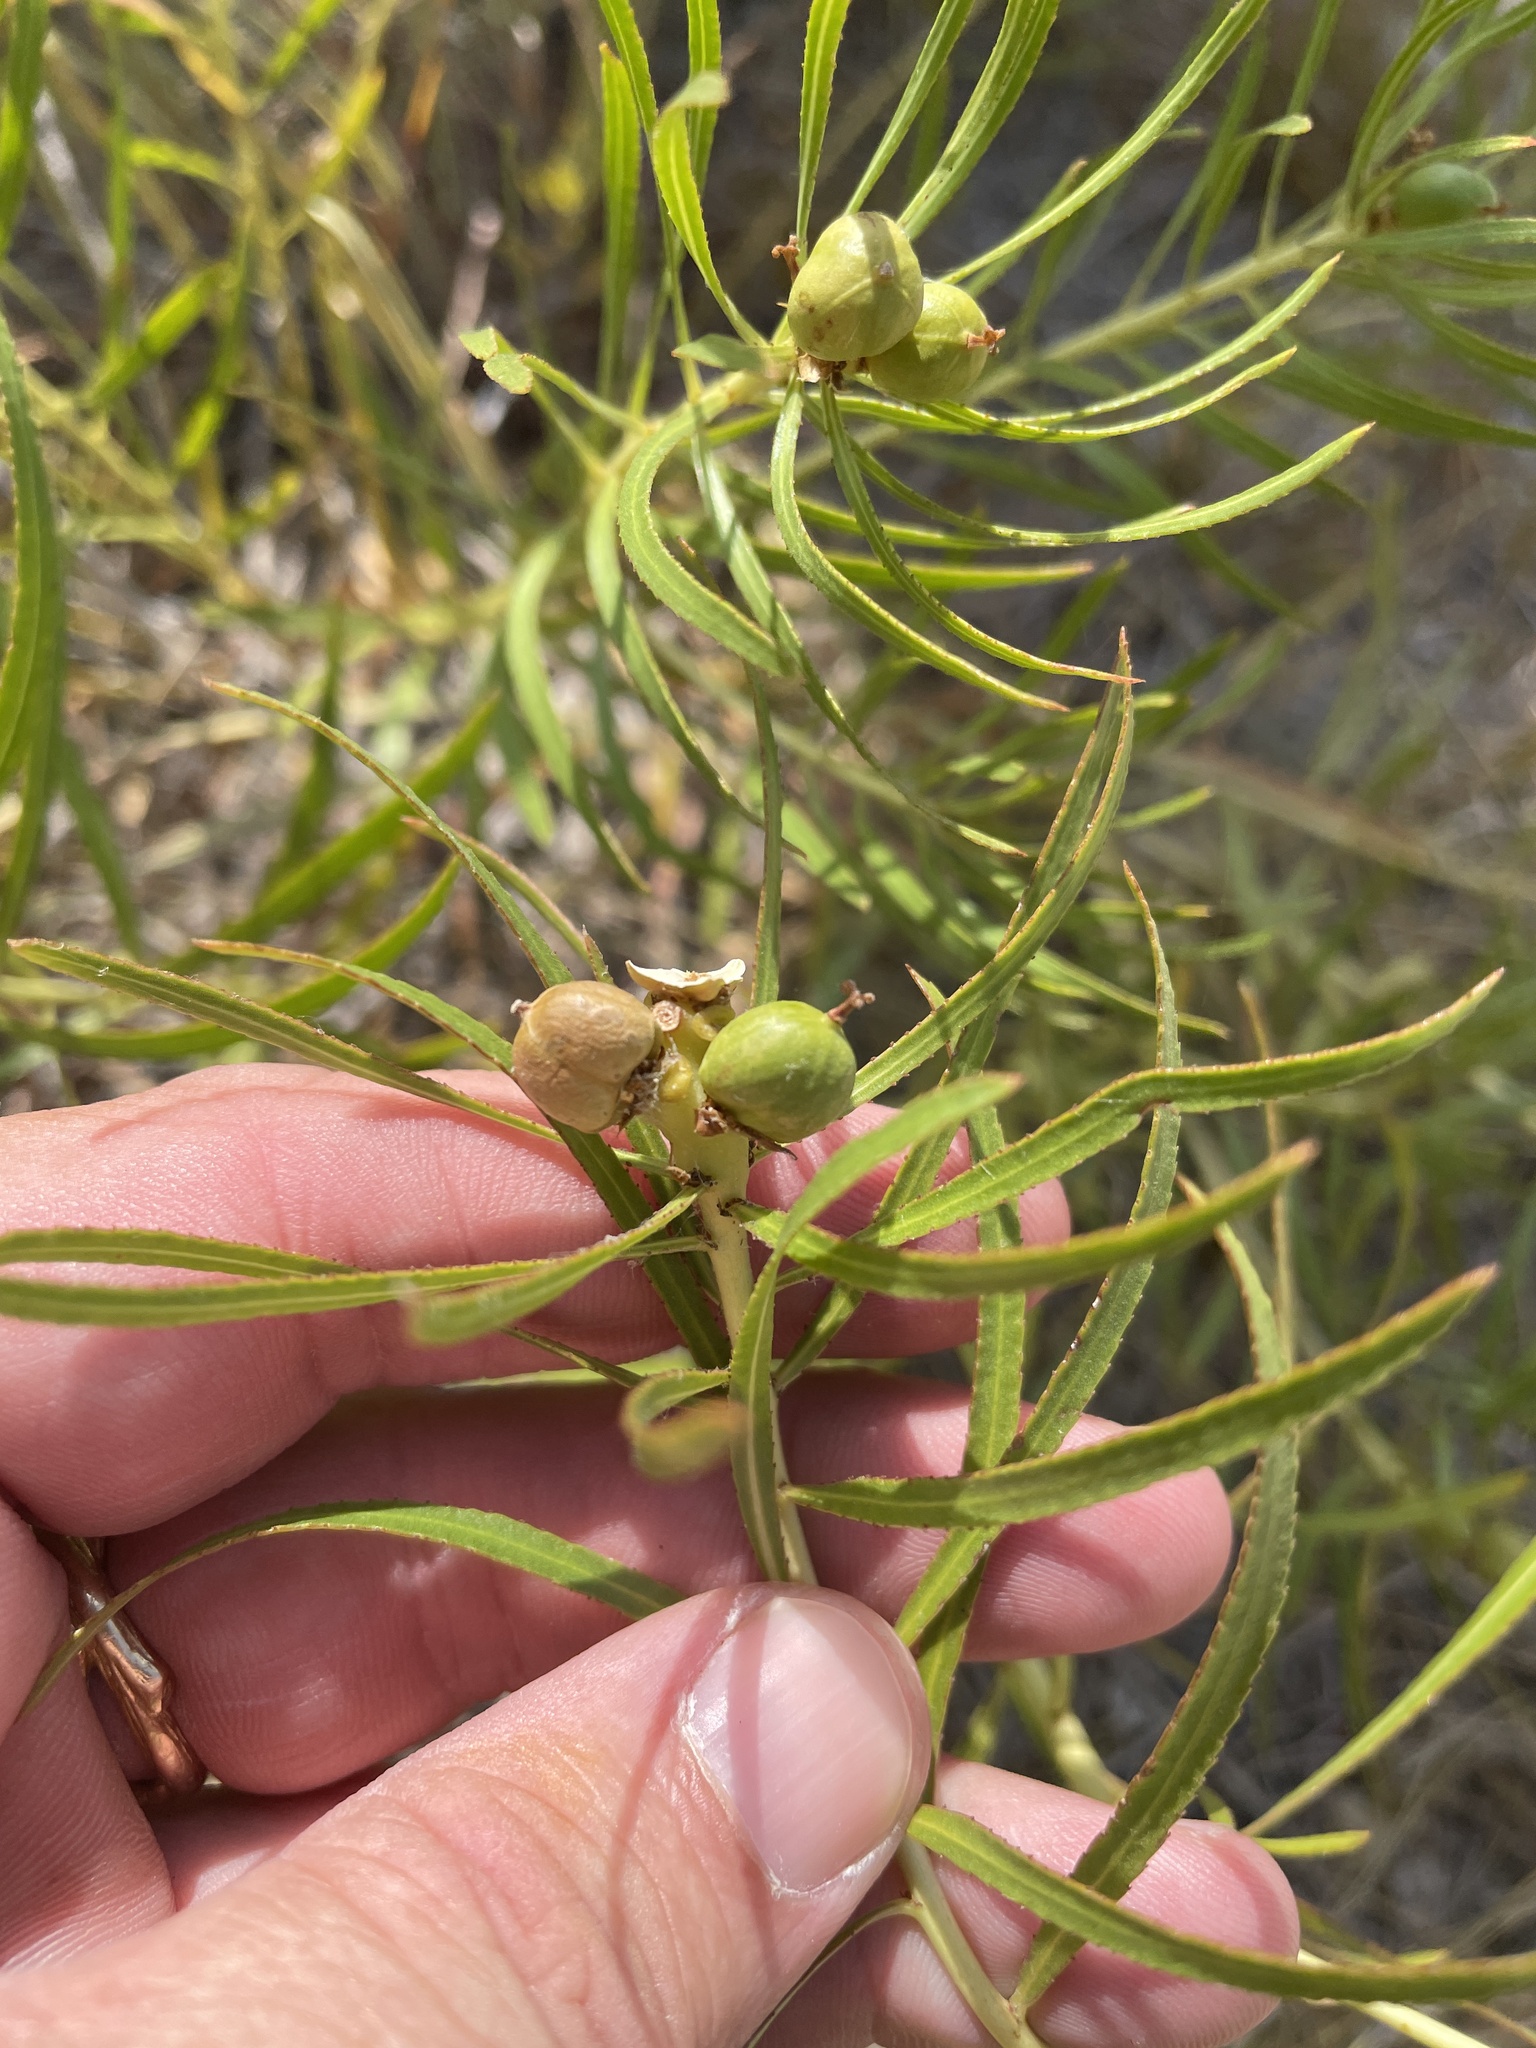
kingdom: Plantae
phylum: Tracheophyta
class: Magnoliopsida
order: Malpighiales
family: Euphorbiaceae
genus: Stillingia
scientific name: Stillingia texana
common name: Texas stillingia
